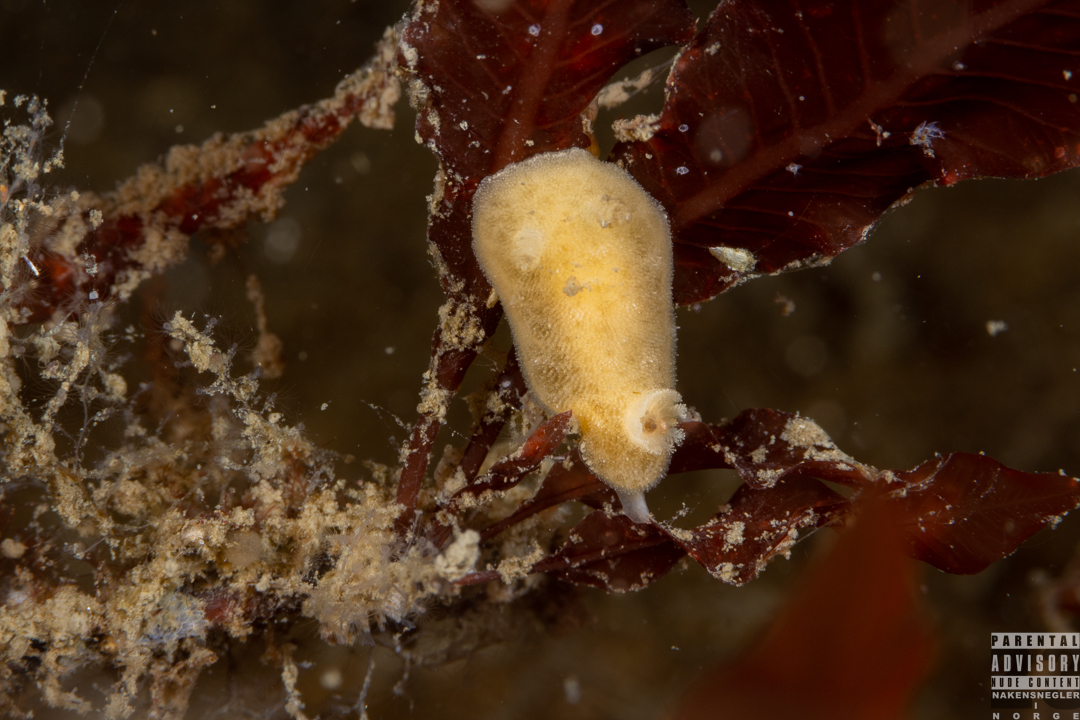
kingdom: Animalia
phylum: Mollusca
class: Gastropoda
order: Nudibranchia
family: Discodorididae
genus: Jorunna
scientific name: Jorunna tomentosa
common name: Grey sea slug
